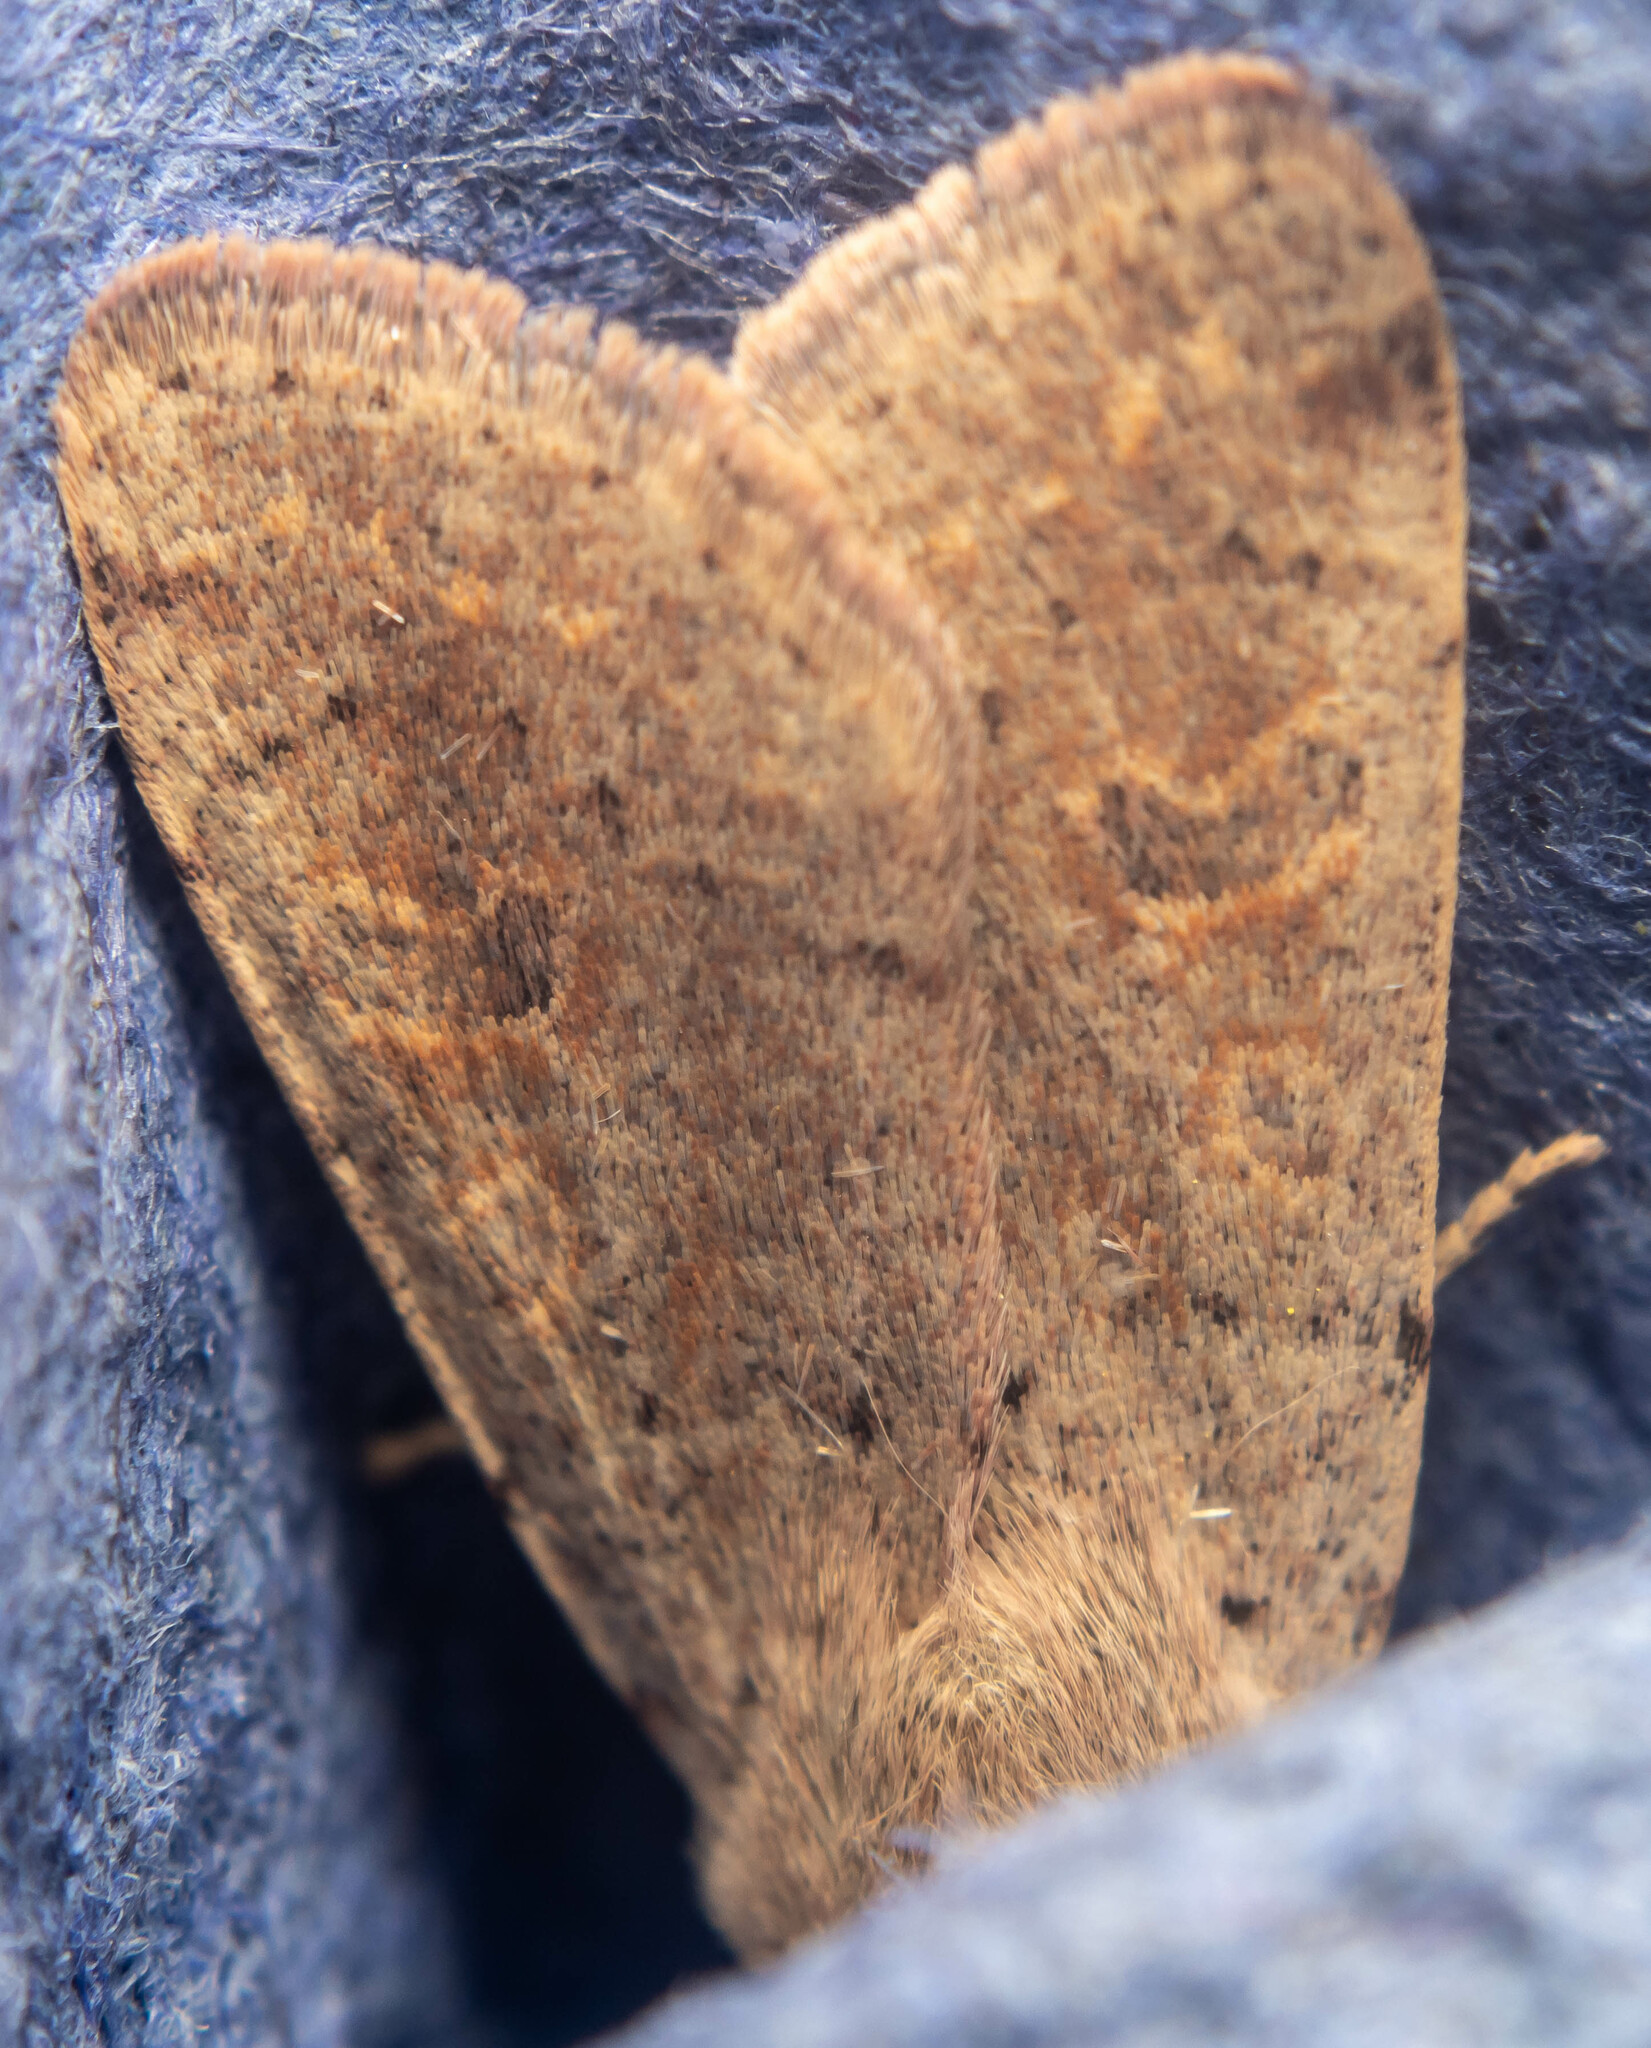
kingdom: Animalia
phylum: Arthropoda
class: Insecta
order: Lepidoptera
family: Noctuidae
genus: Orthosia
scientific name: Orthosia cruda
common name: Small quaker
